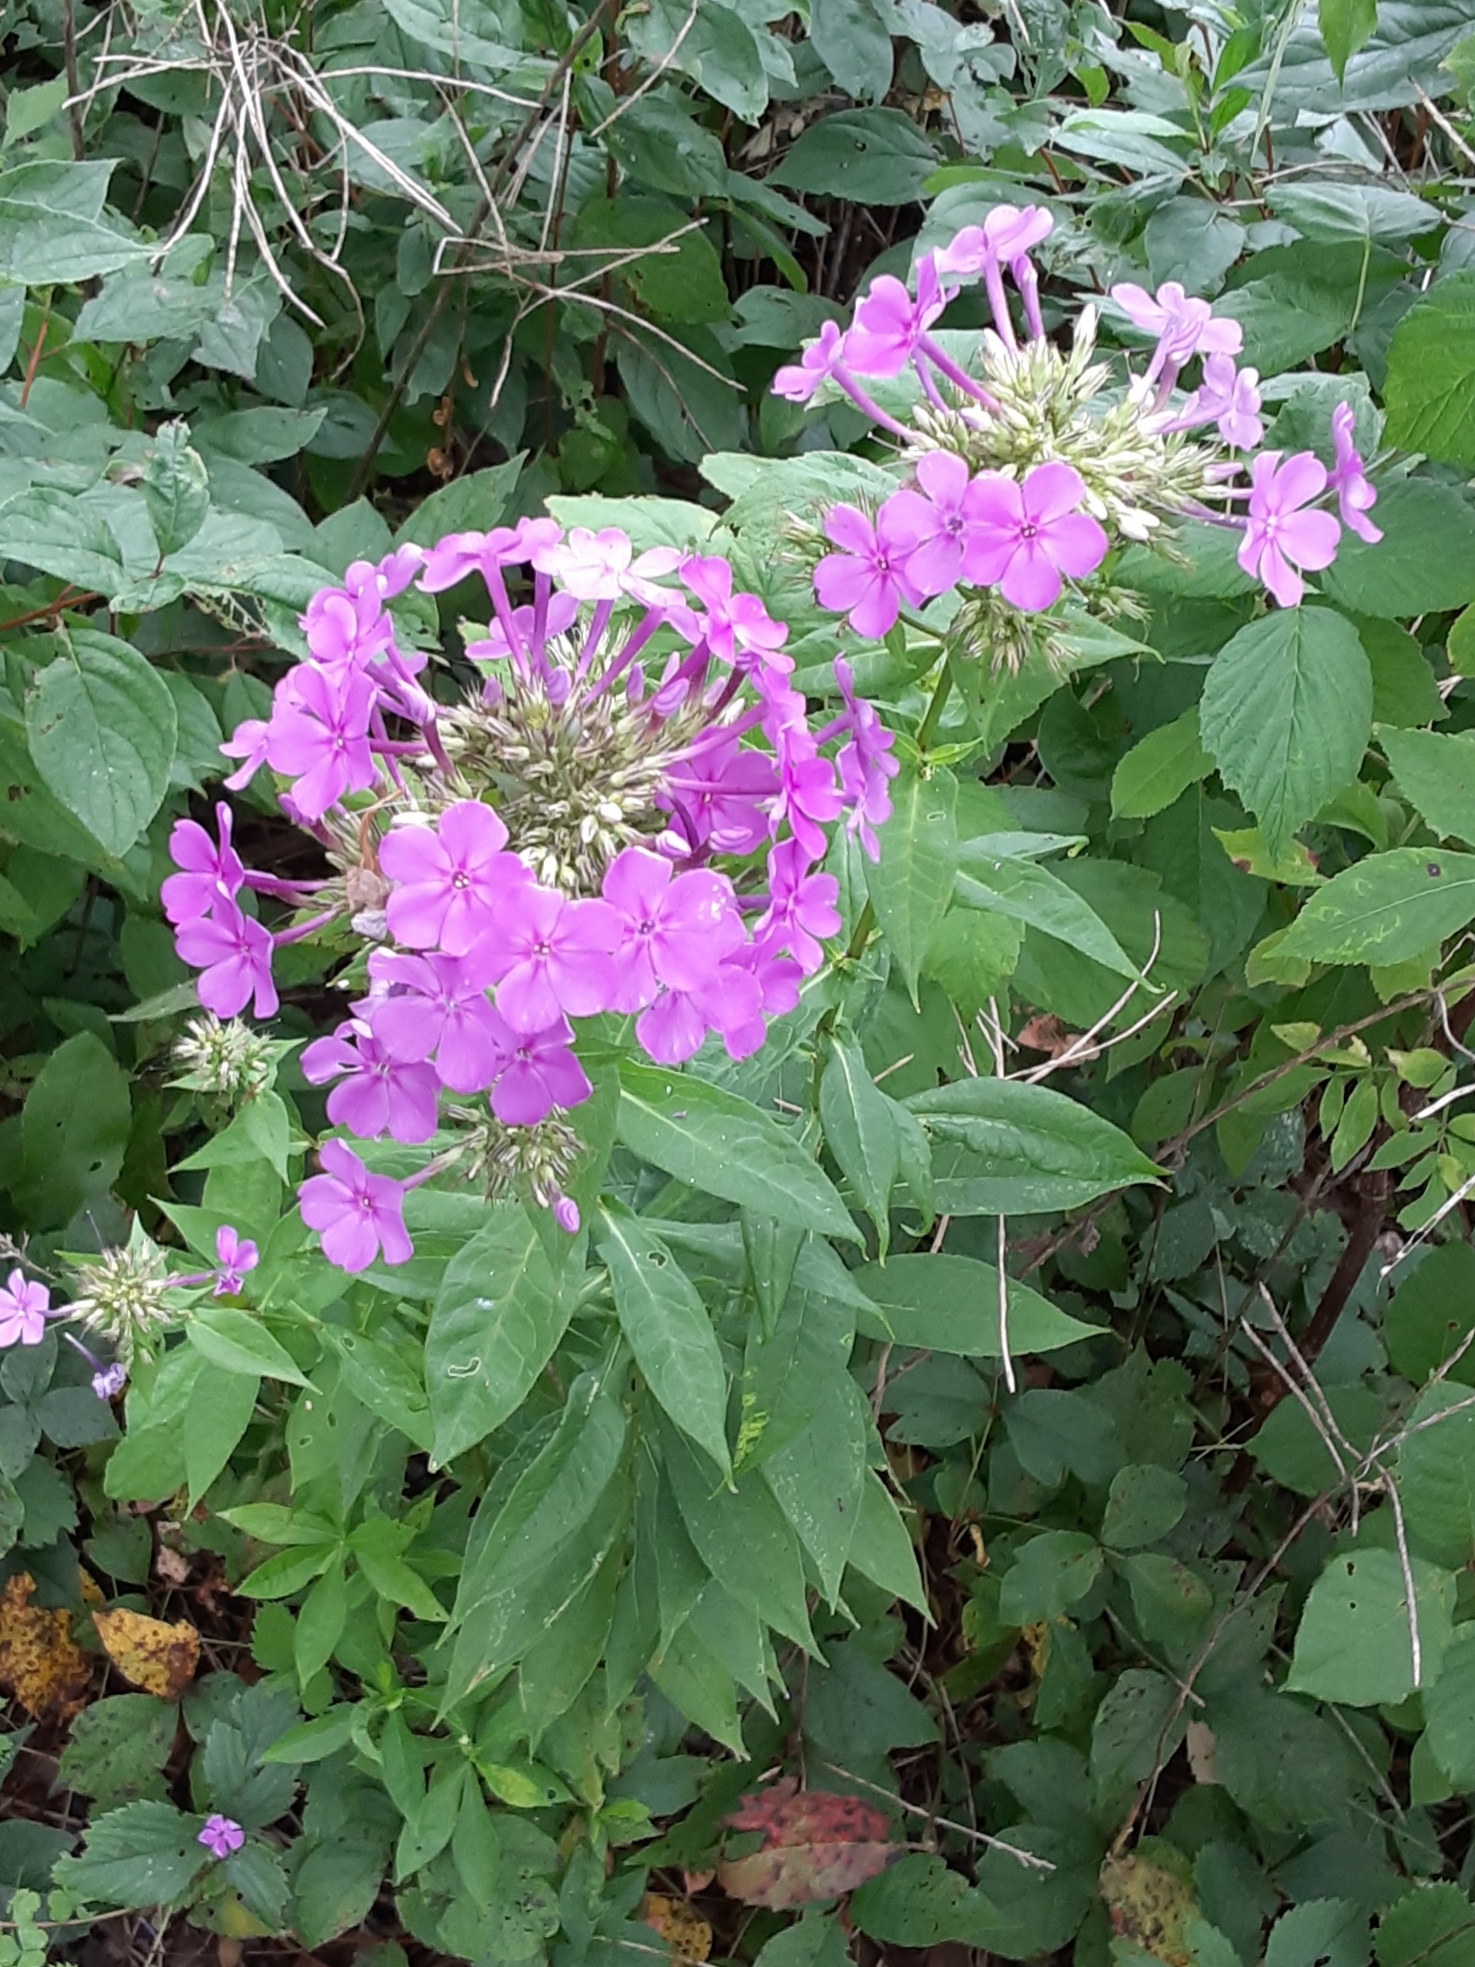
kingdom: Plantae
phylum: Tracheophyta
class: Magnoliopsida
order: Ericales
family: Polemoniaceae
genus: Phlox
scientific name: Phlox paniculata
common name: Fall phlox
